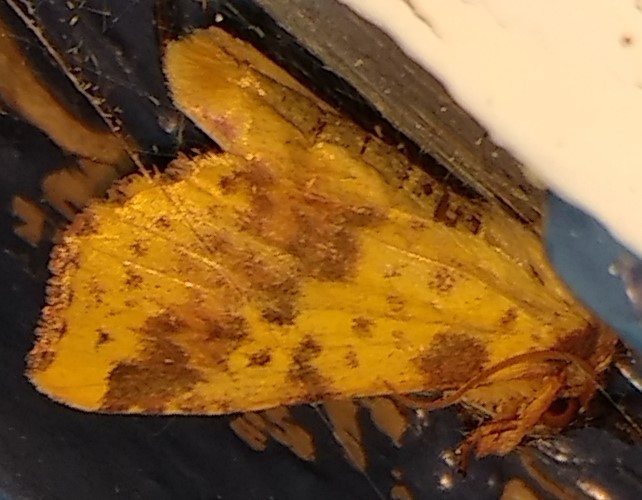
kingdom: Animalia
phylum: Arthropoda
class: Insecta
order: Lepidoptera
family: Noctuidae
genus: Xanthia
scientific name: Xanthia tatago
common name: Pink-banded sallow
